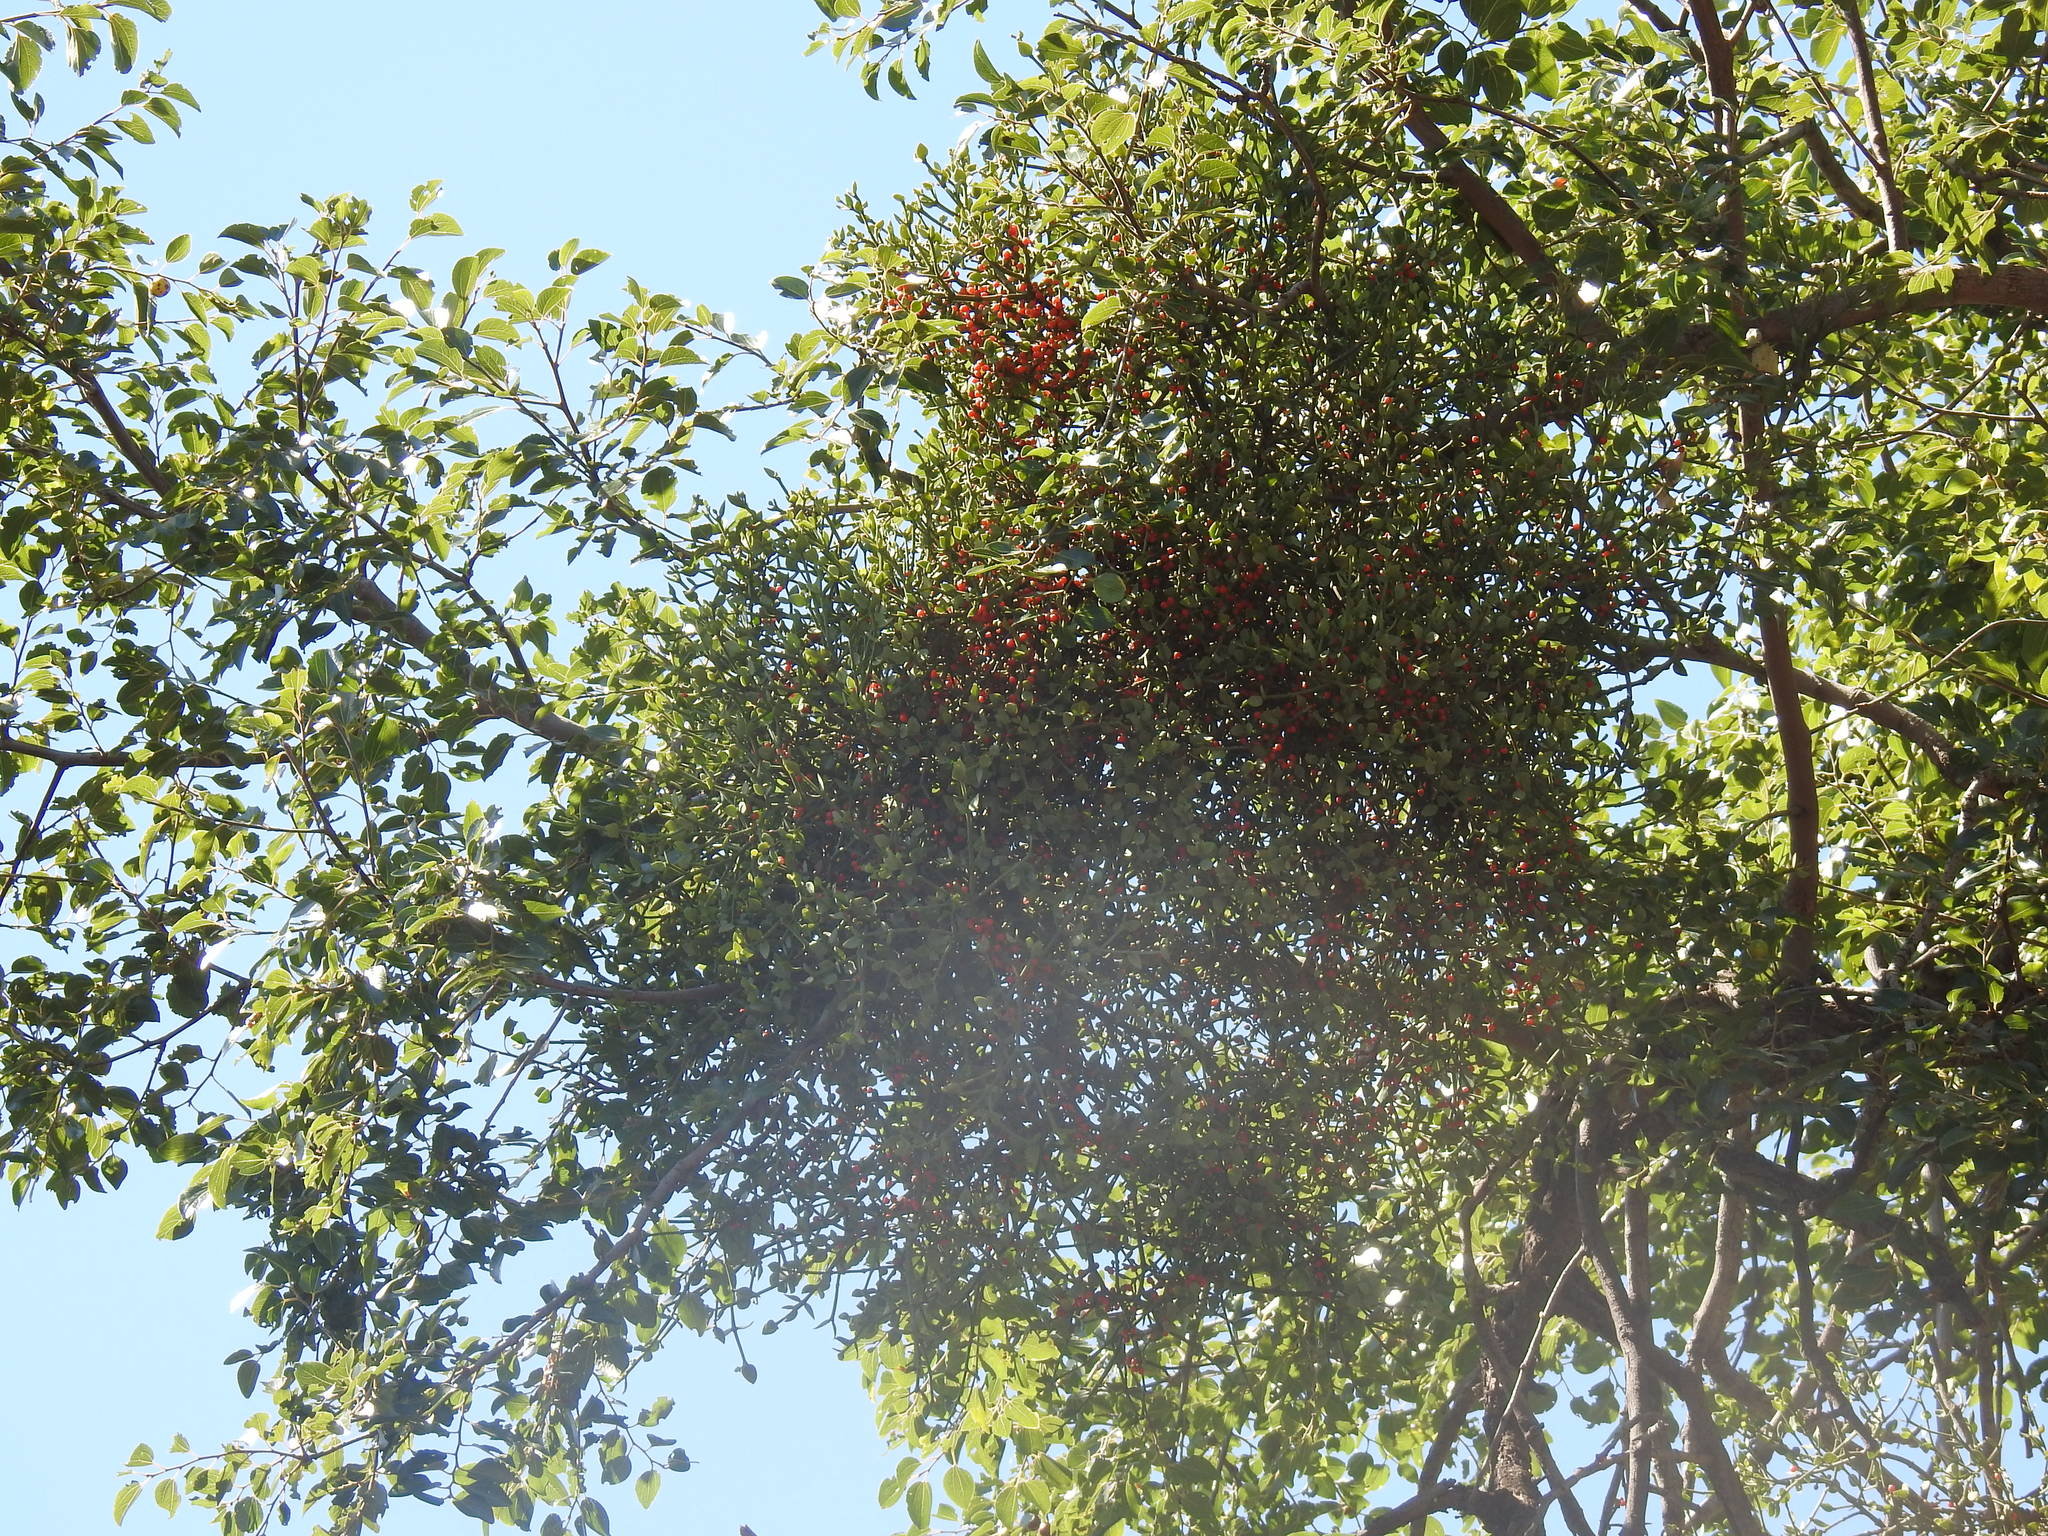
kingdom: Plantae
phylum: Tracheophyta
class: Magnoliopsida
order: Santalales
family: Viscaceae
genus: Viscum
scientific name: Viscum rotundifolium
